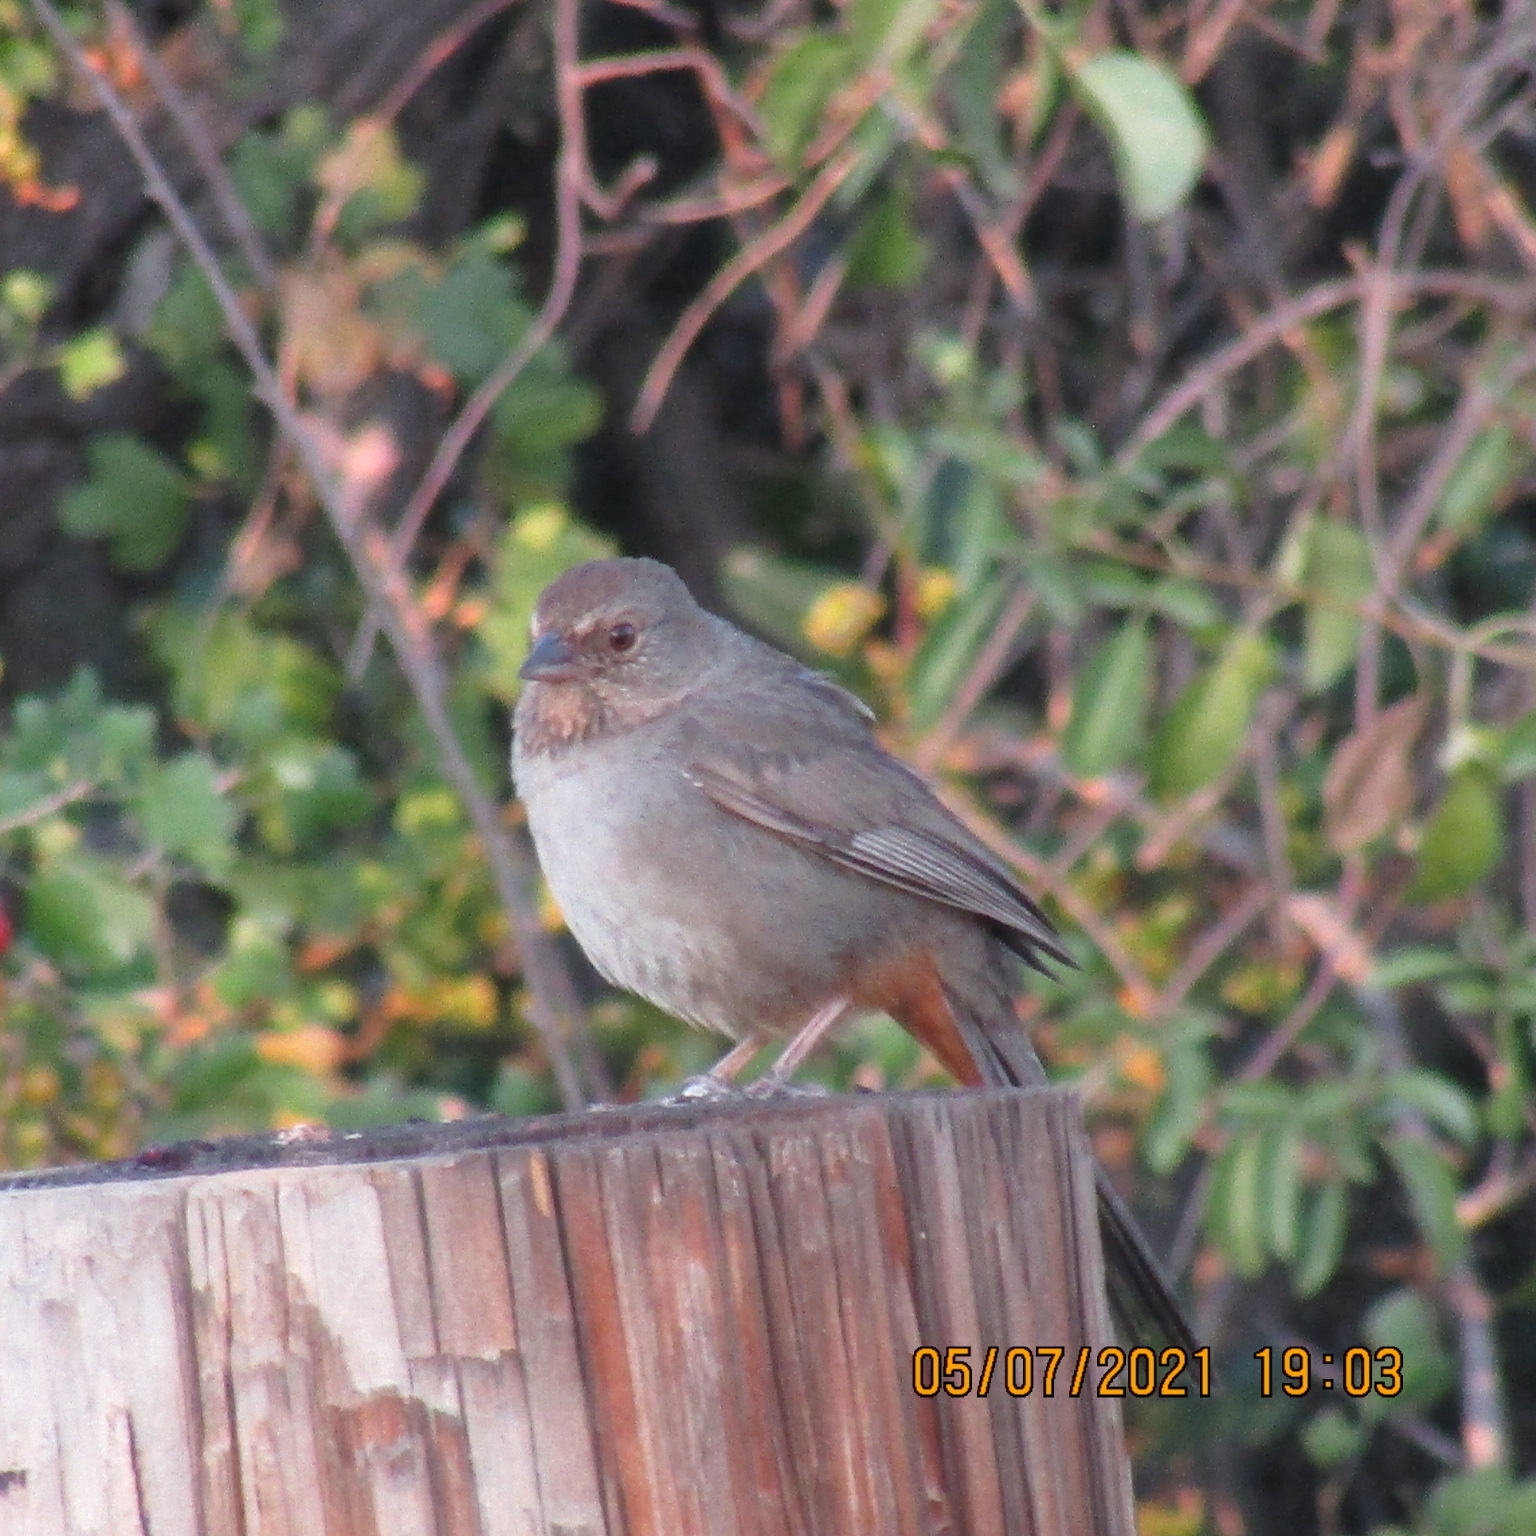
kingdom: Animalia
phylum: Chordata
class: Aves
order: Passeriformes
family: Passerellidae
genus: Melozone
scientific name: Melozone crissalis
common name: California towhee
